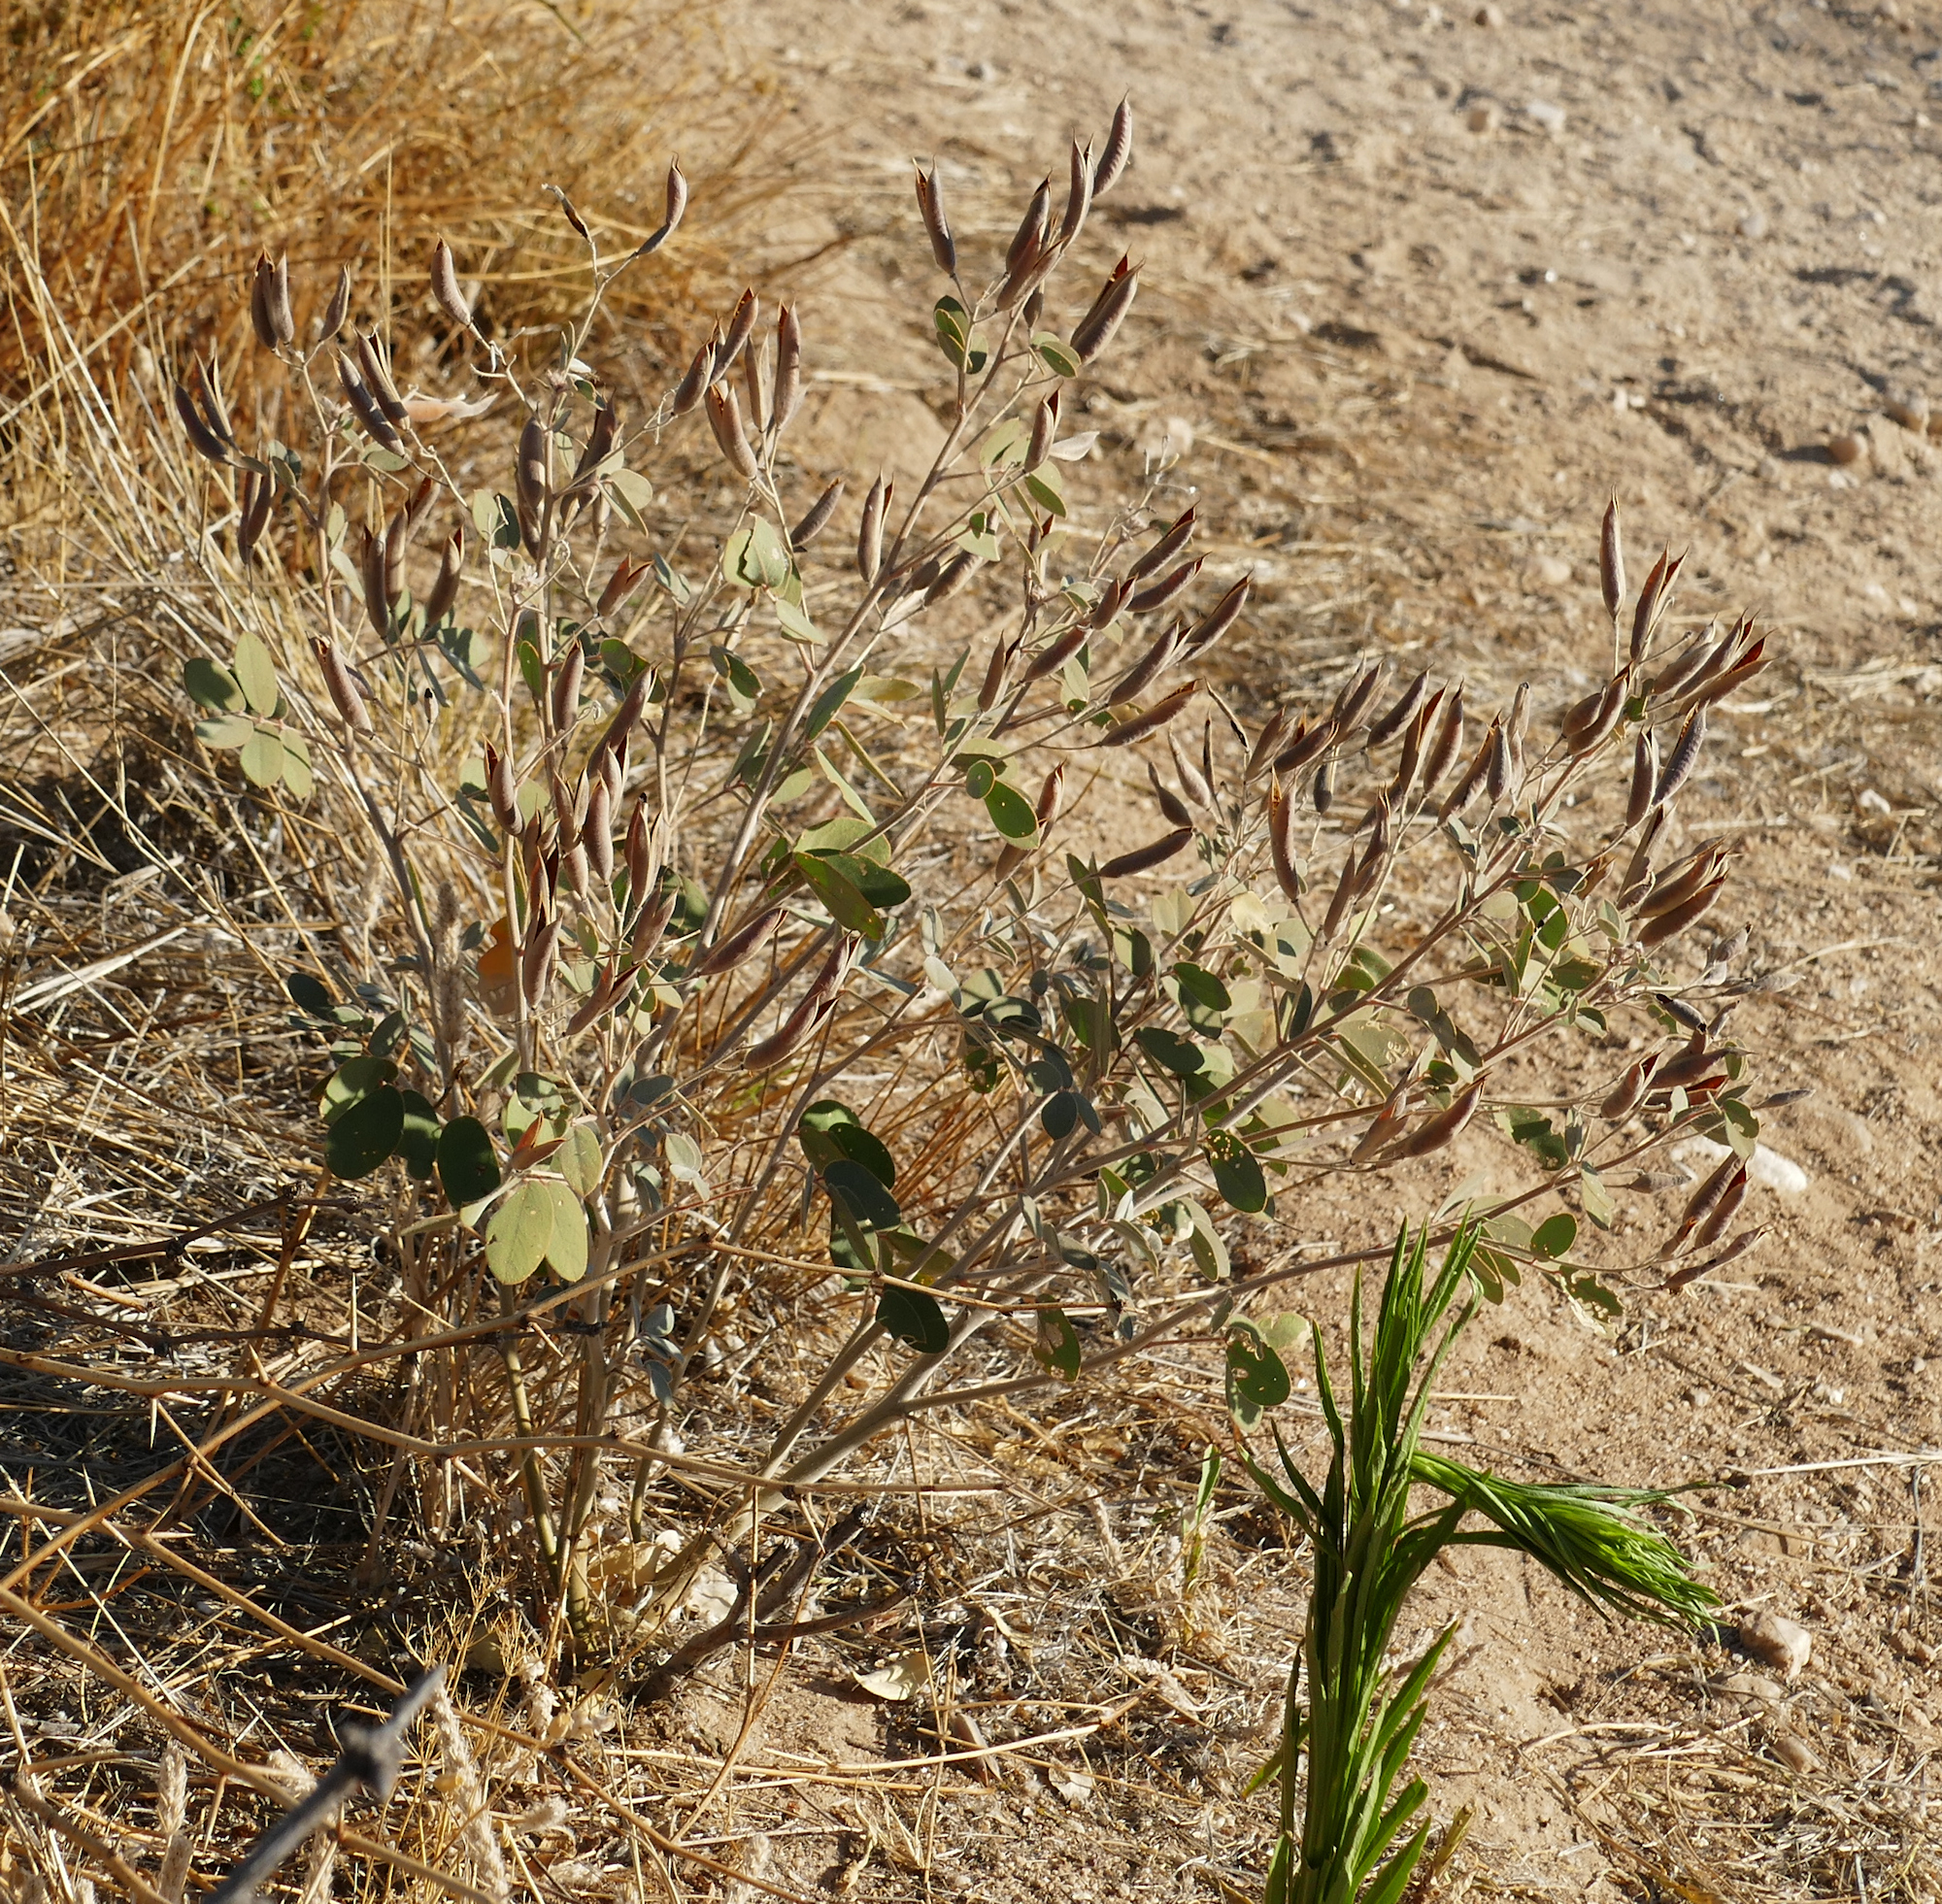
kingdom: Plantae
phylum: Tracheophyta
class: Magnoliopsida
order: Fabales
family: Fabaceae
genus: Senna
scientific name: Senna covesii
